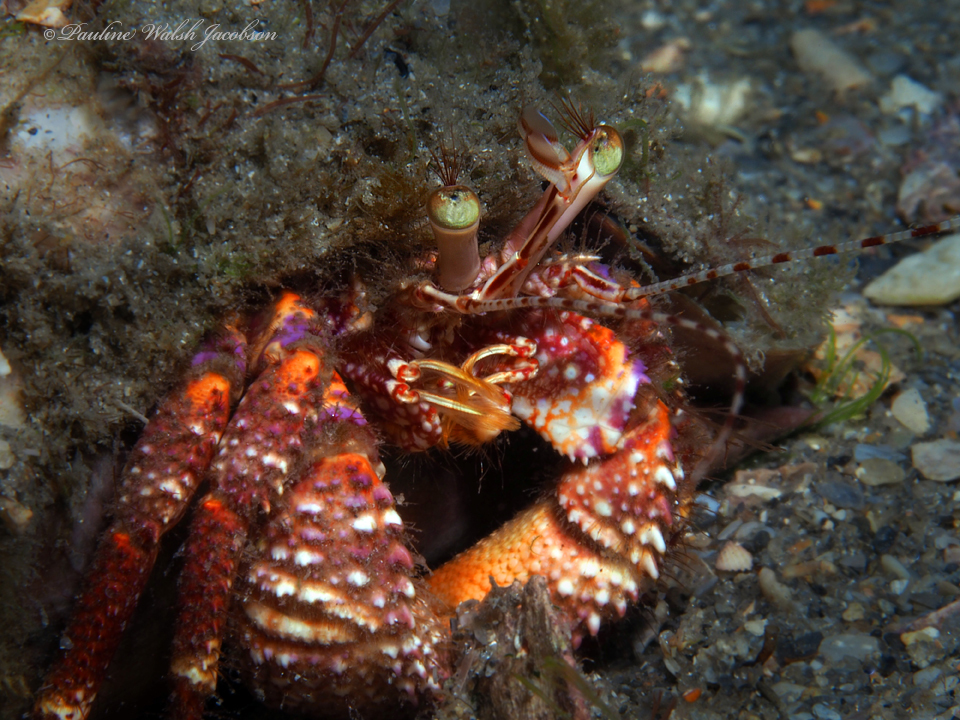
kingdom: Animalia
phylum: Arthropoda
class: Malacostraca
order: Decapoda
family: Diogenidae
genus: Petrochirus
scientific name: Petrochirus diogenes
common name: Giant hermit crab
